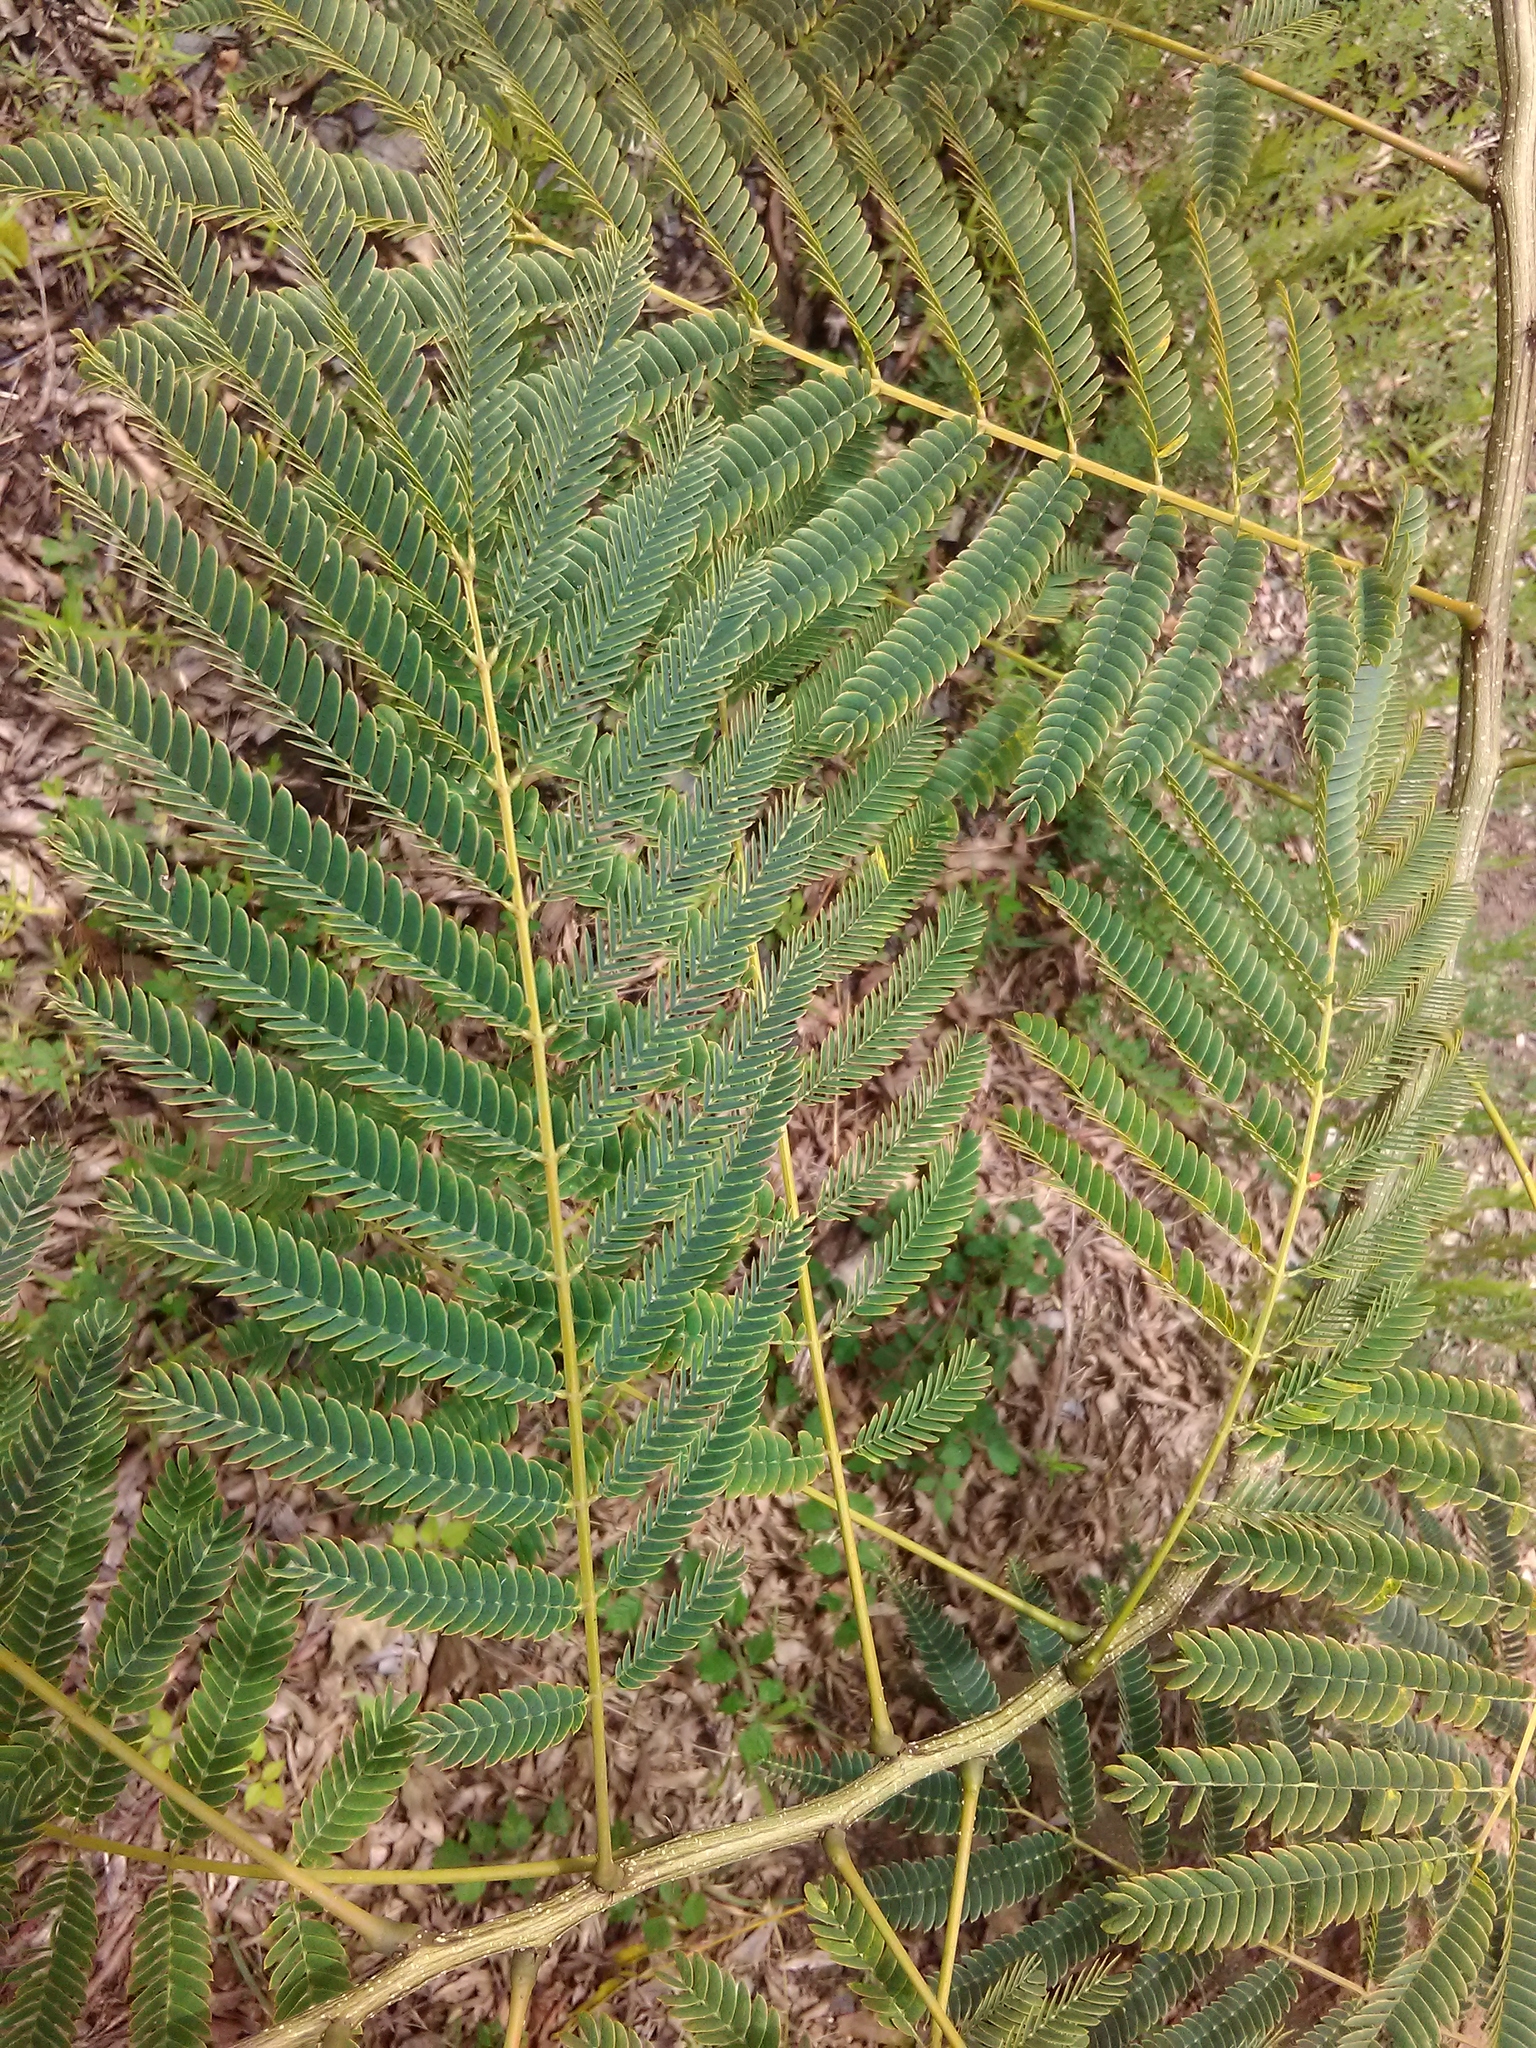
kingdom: Plantae
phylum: Tracheophyta
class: Magnoliopsida
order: Fabales
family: Fabaceae
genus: Albizia
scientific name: Albizia julibrissin
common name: Silktree
